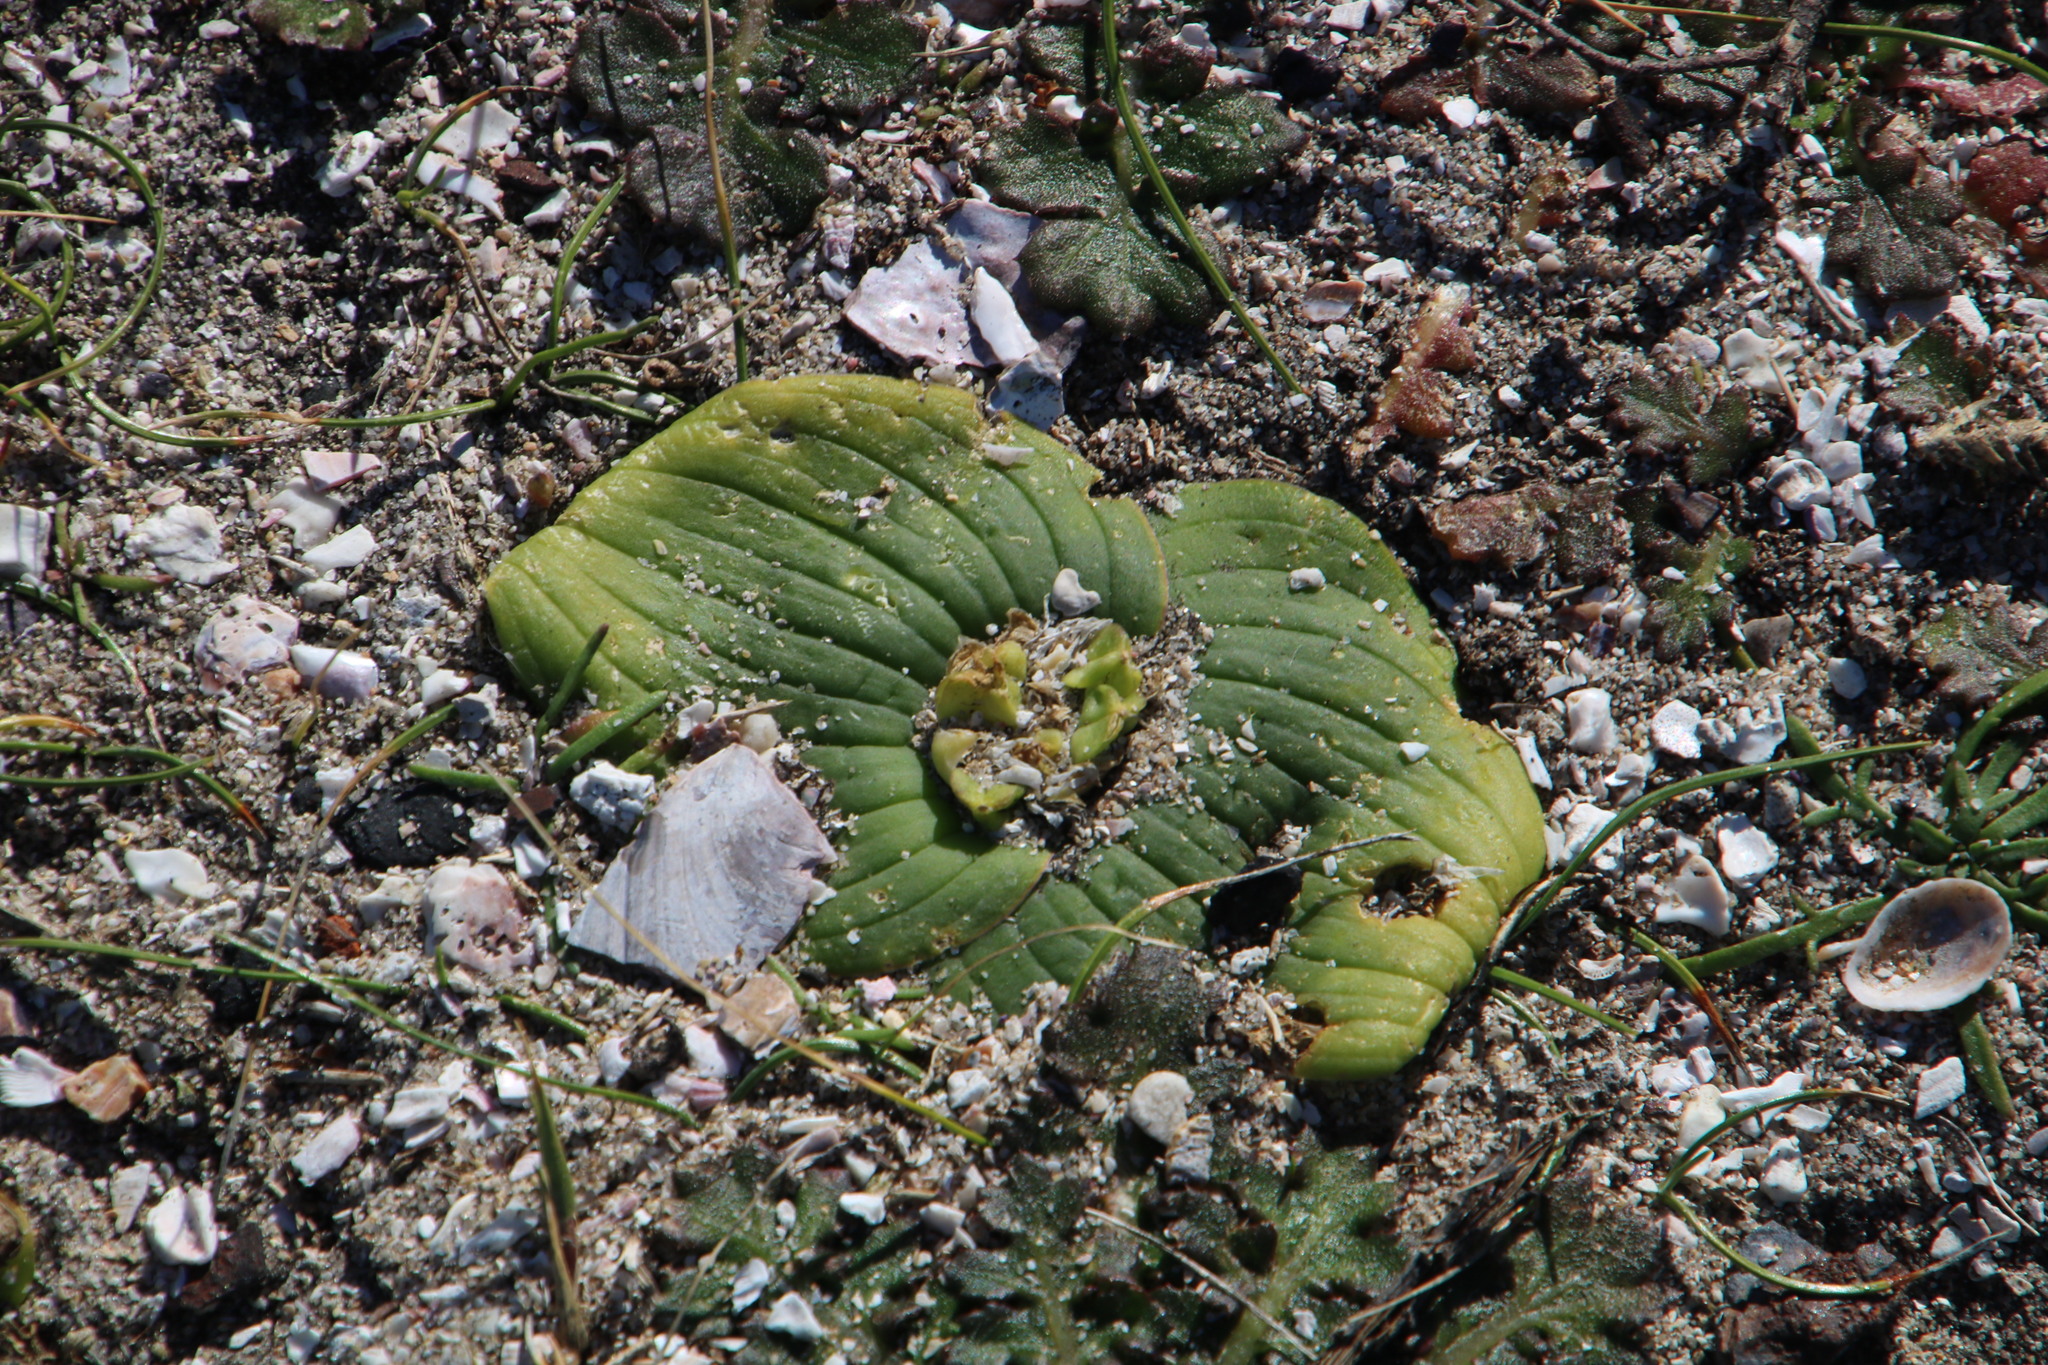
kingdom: Plantae
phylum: Tracheophyta
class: Liliopsida
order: Asparagales
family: Asparagaceae
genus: Massonia
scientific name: Massonia longipes
